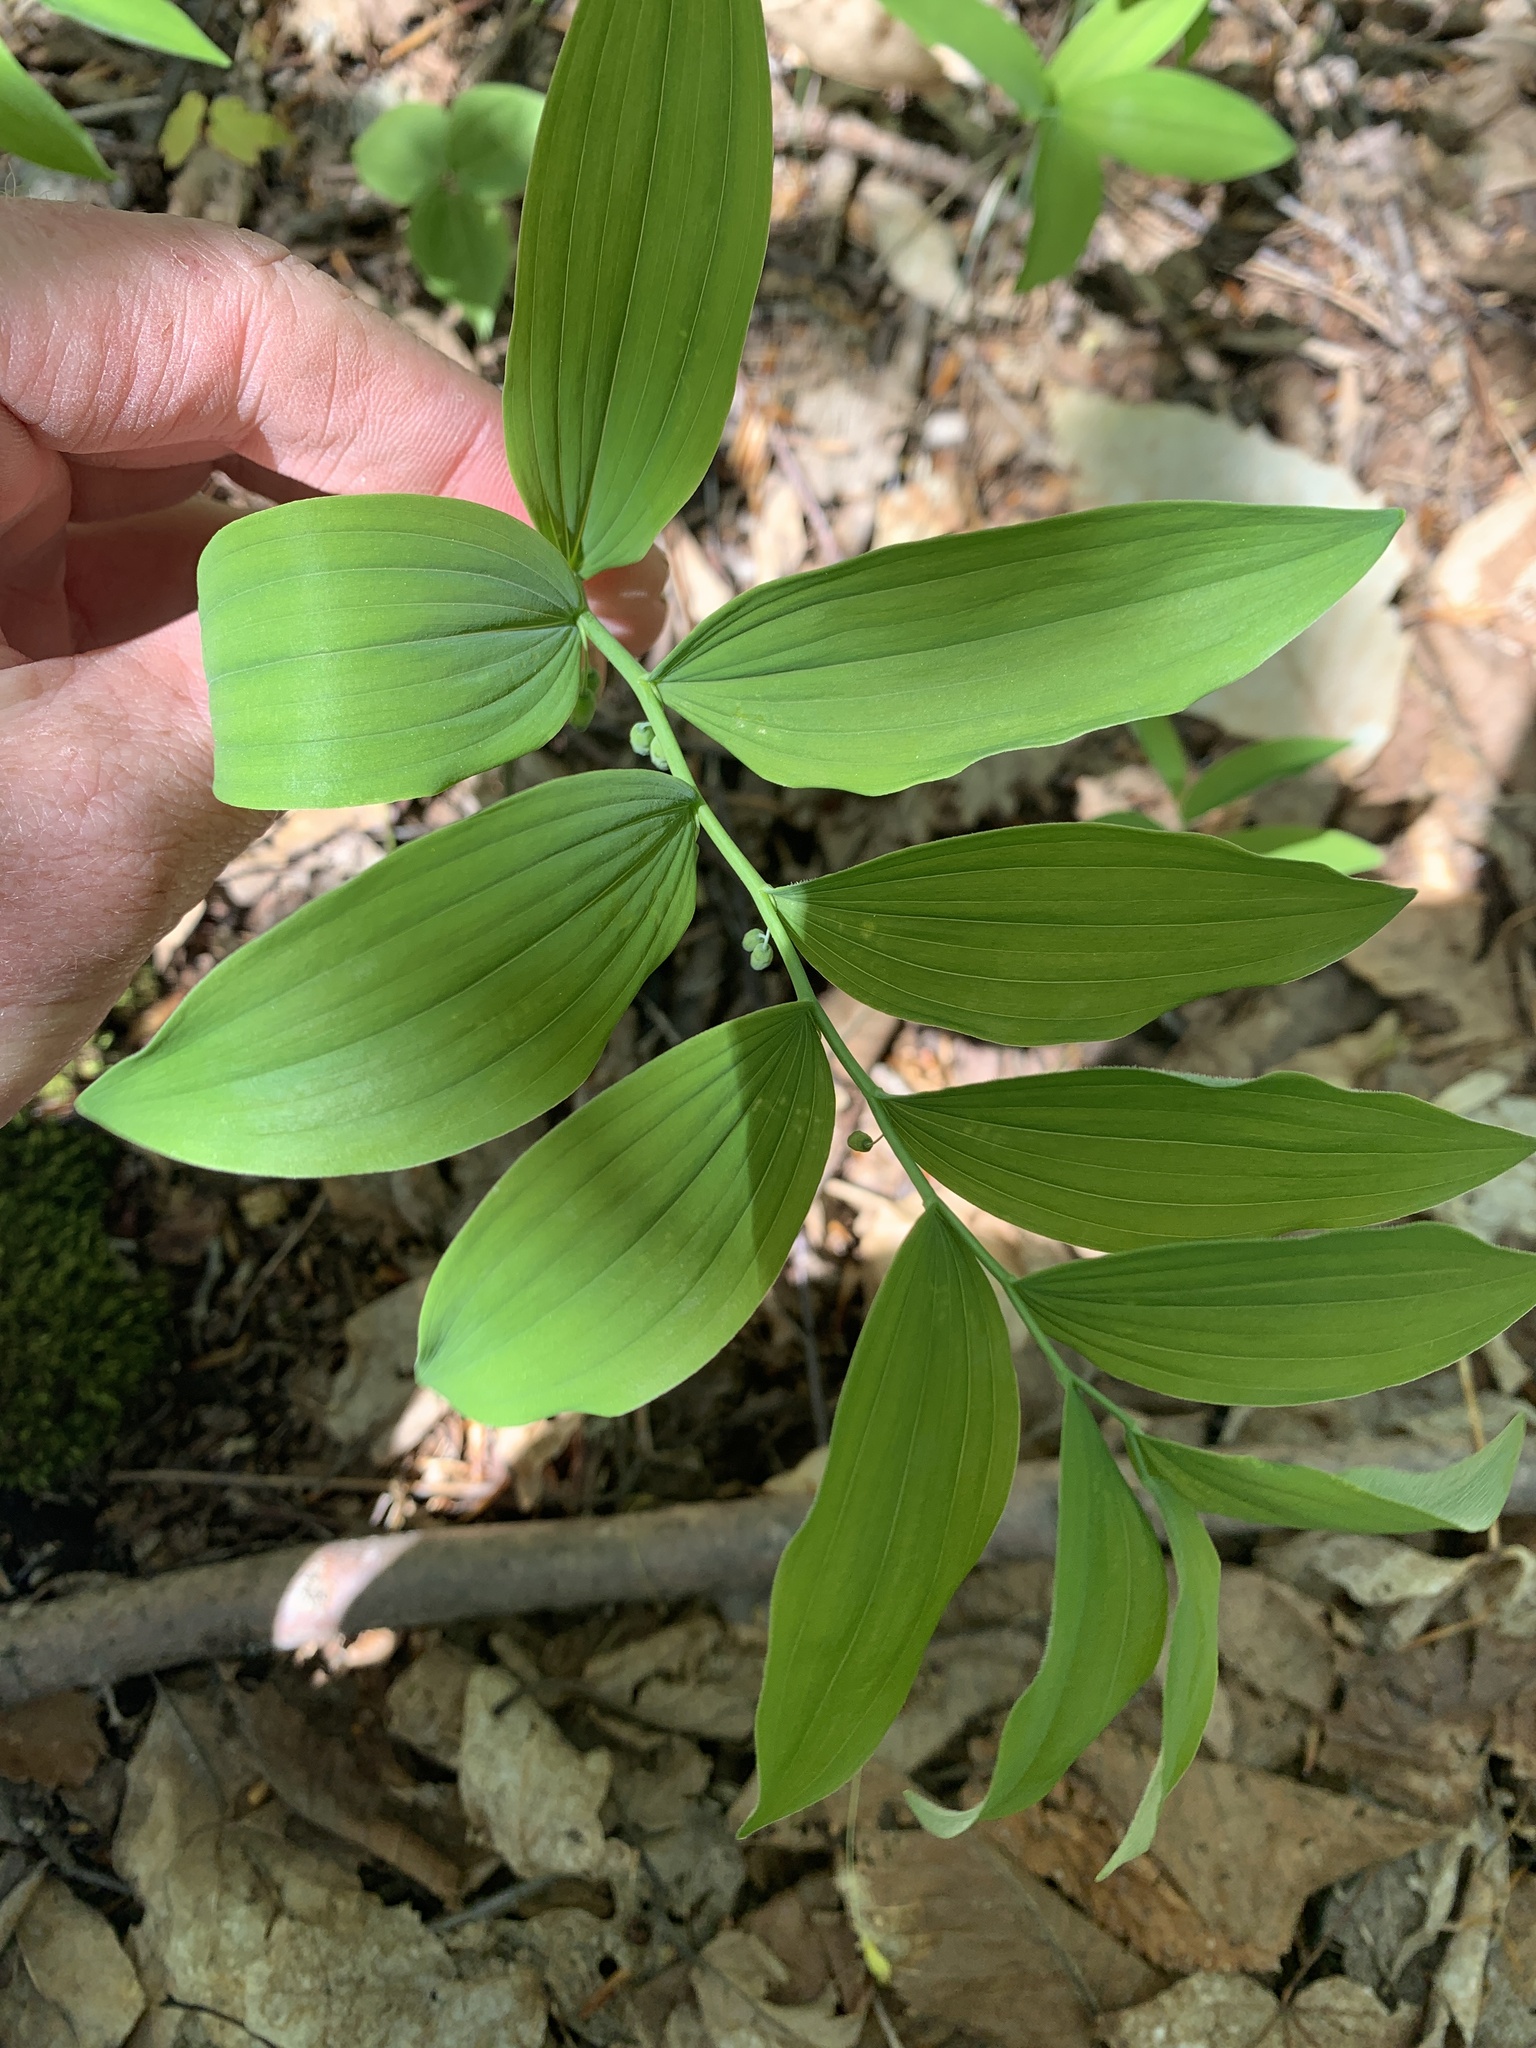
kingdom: Plantae
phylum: Tracheophyta
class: Liliopsida
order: Asparagales
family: Asparagaceae
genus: Polygonatum
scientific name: Polygonatum pubescens
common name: Downy solomon's seal
